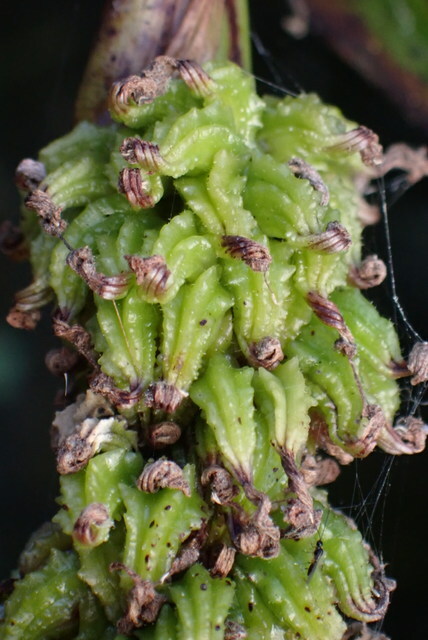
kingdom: Plantae
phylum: Tracheophyta
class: Liliopsida
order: Commelinales
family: Pontederiaceae
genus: Pontederia
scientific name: Pontederia cordata
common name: Pickerelweed
